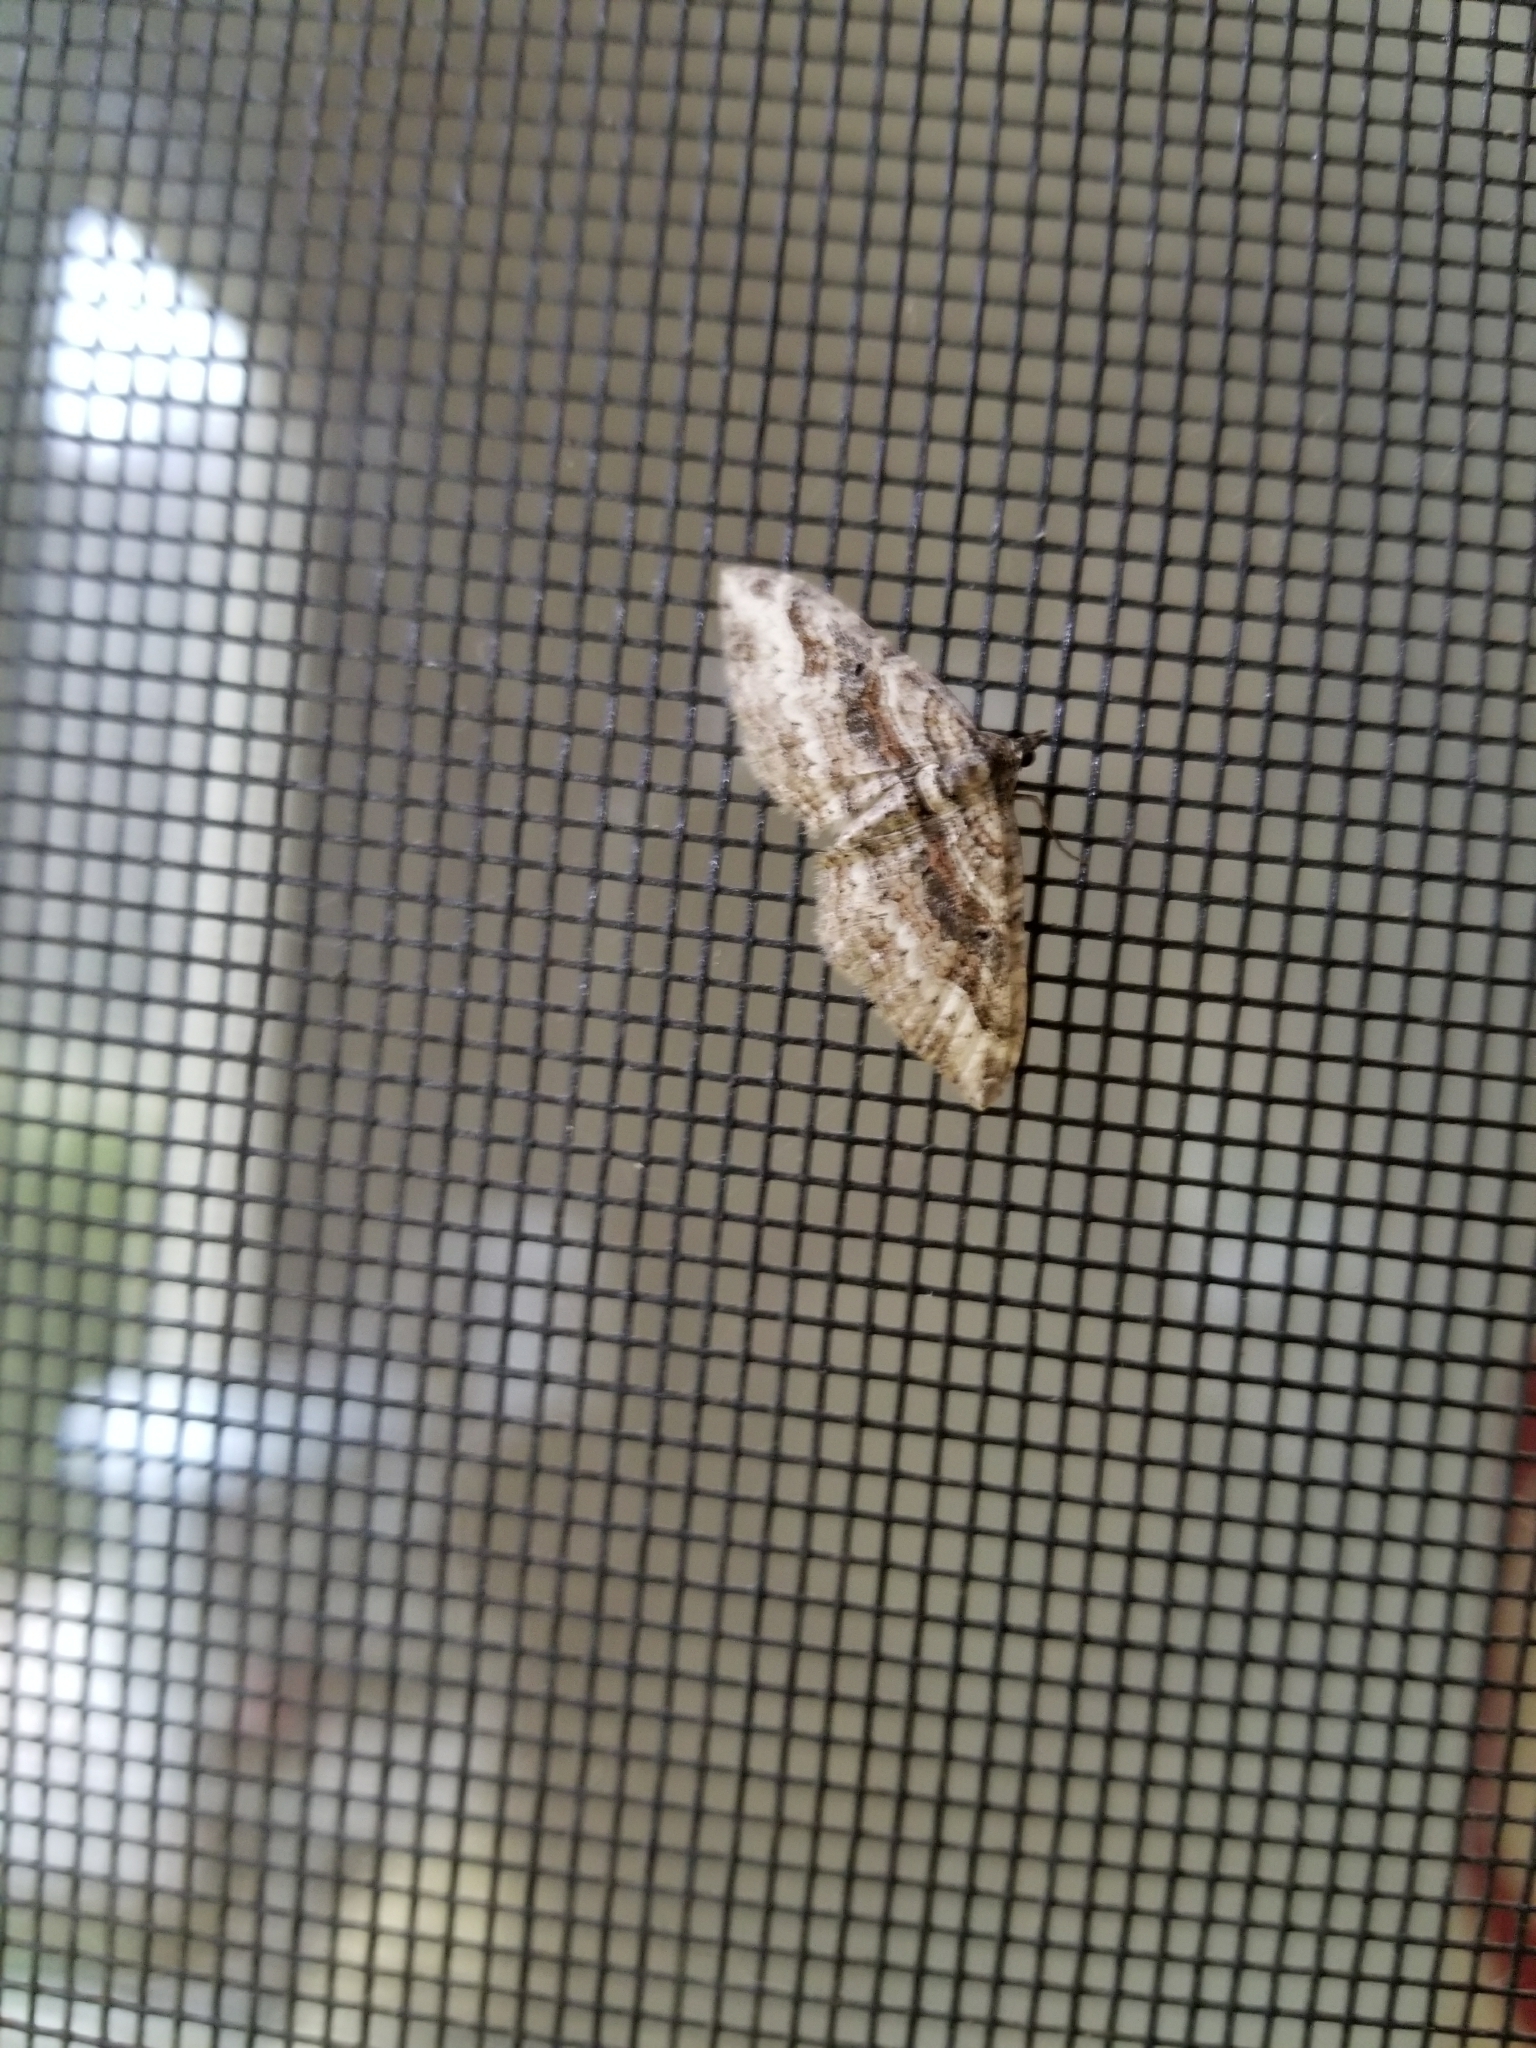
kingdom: Animalia
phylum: Arthropoda
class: Insecta
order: Lepidoptera
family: Geometridae
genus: Costaconvexa
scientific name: Costaconvexa centrostrigaria
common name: Bent-line carpet
